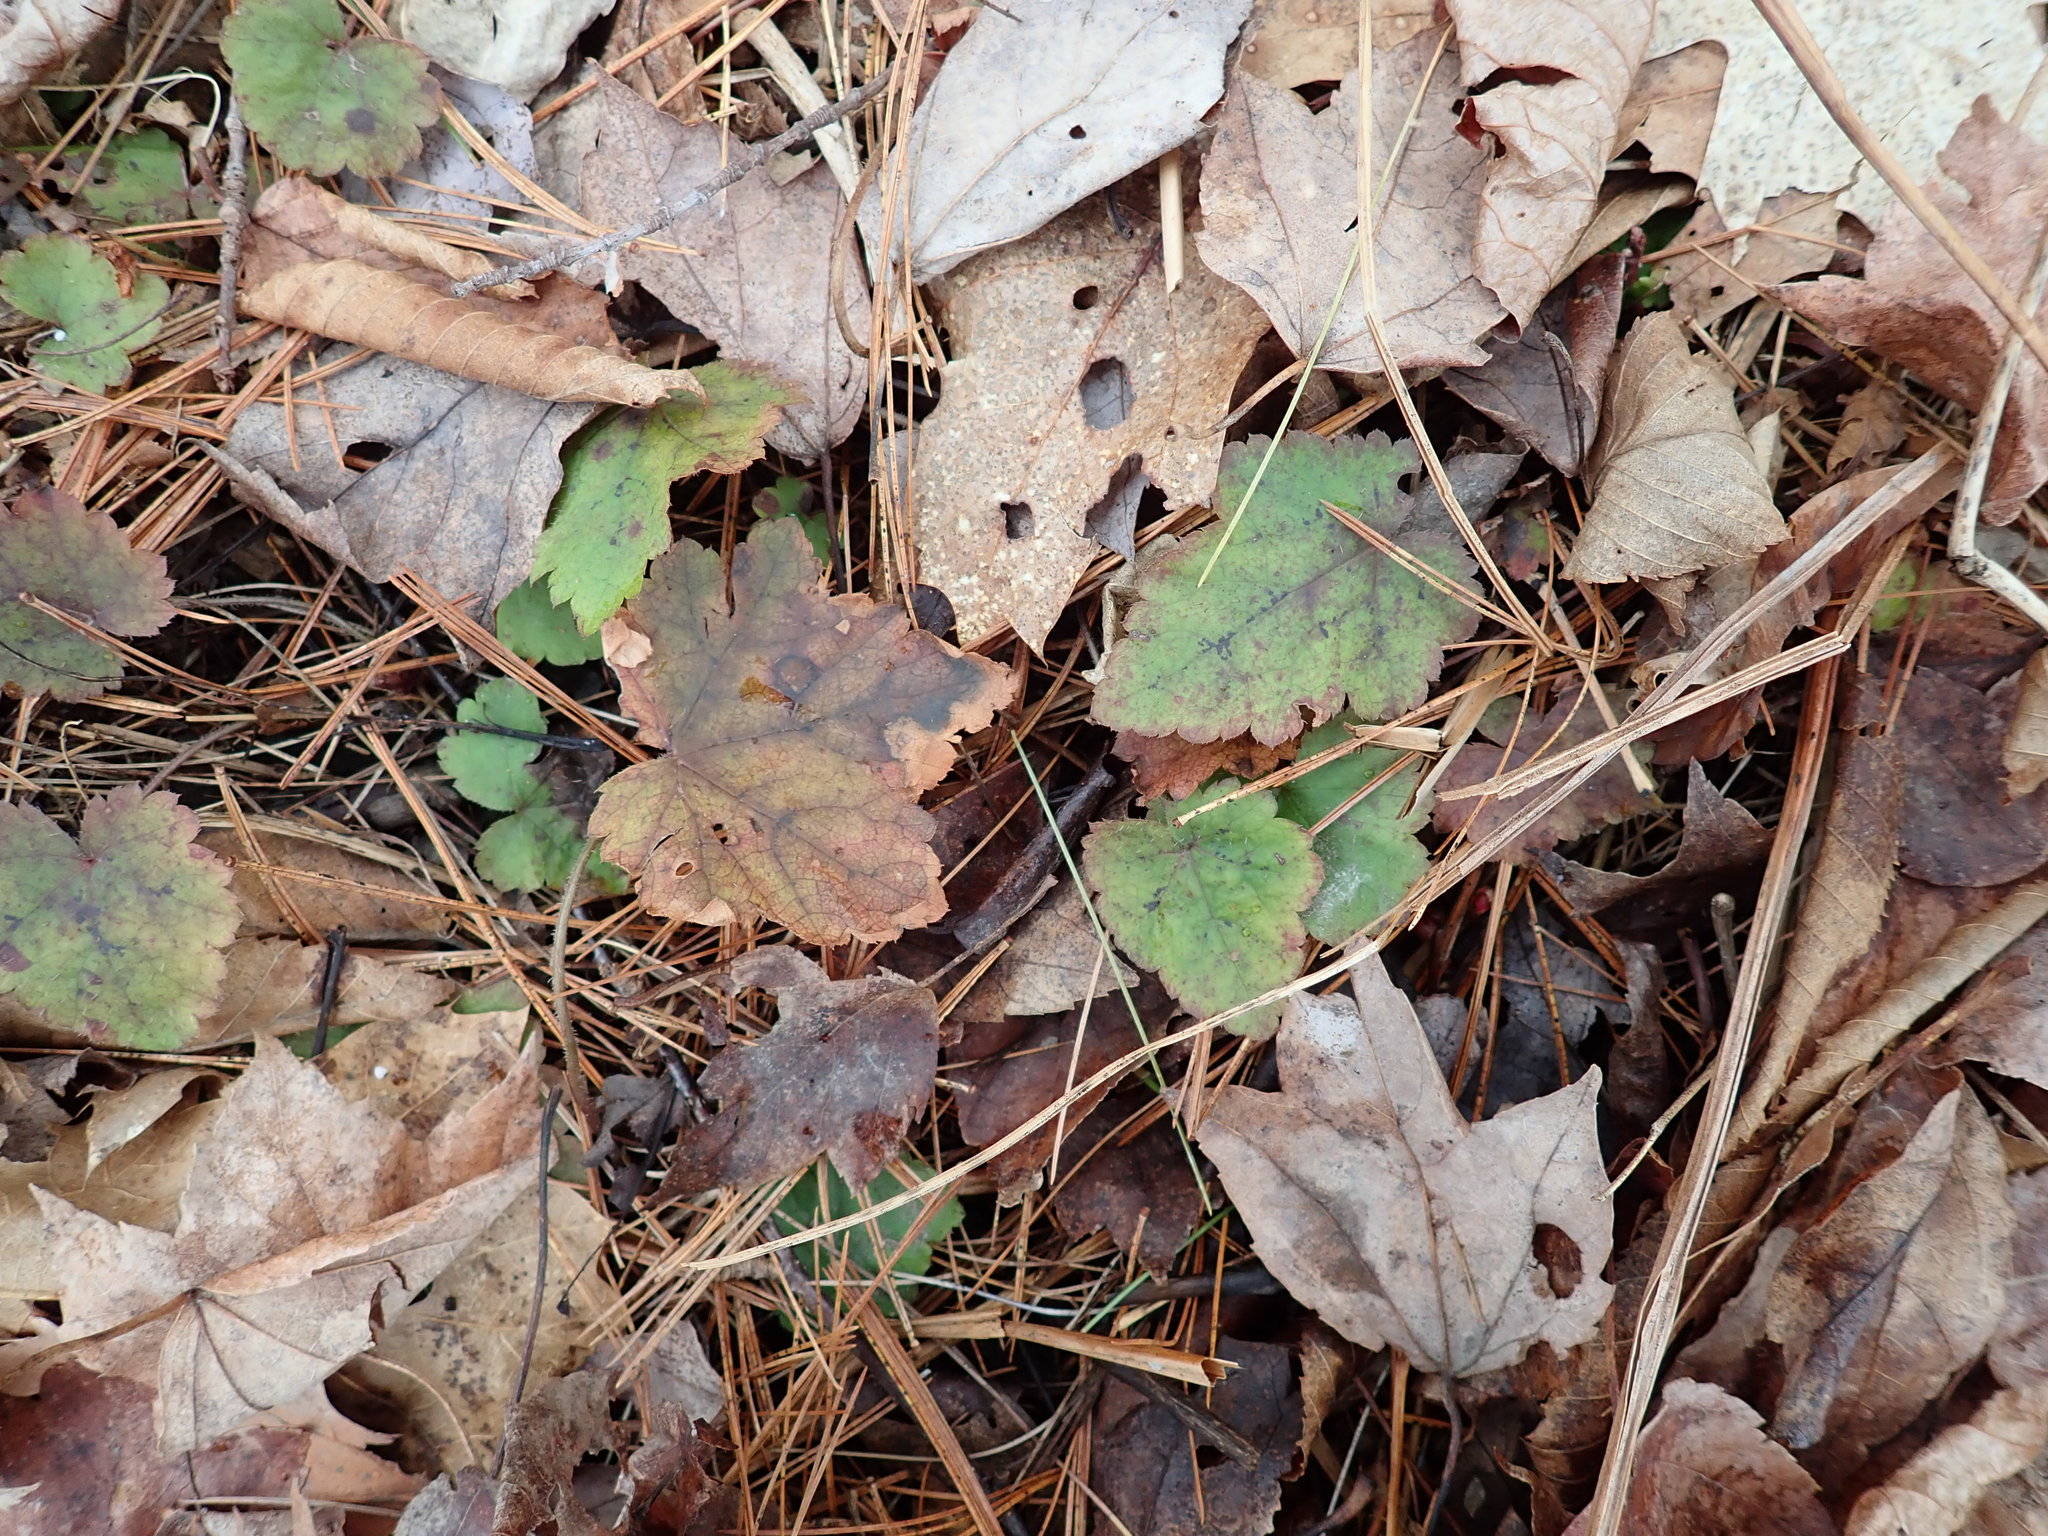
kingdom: Plantae
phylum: Tracheophyta
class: Magnoliopsida
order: Saxifragales
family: Saxifragaceae
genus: Tiarella
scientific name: Tiarella stolonifera
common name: Stoloniferous foamflower
